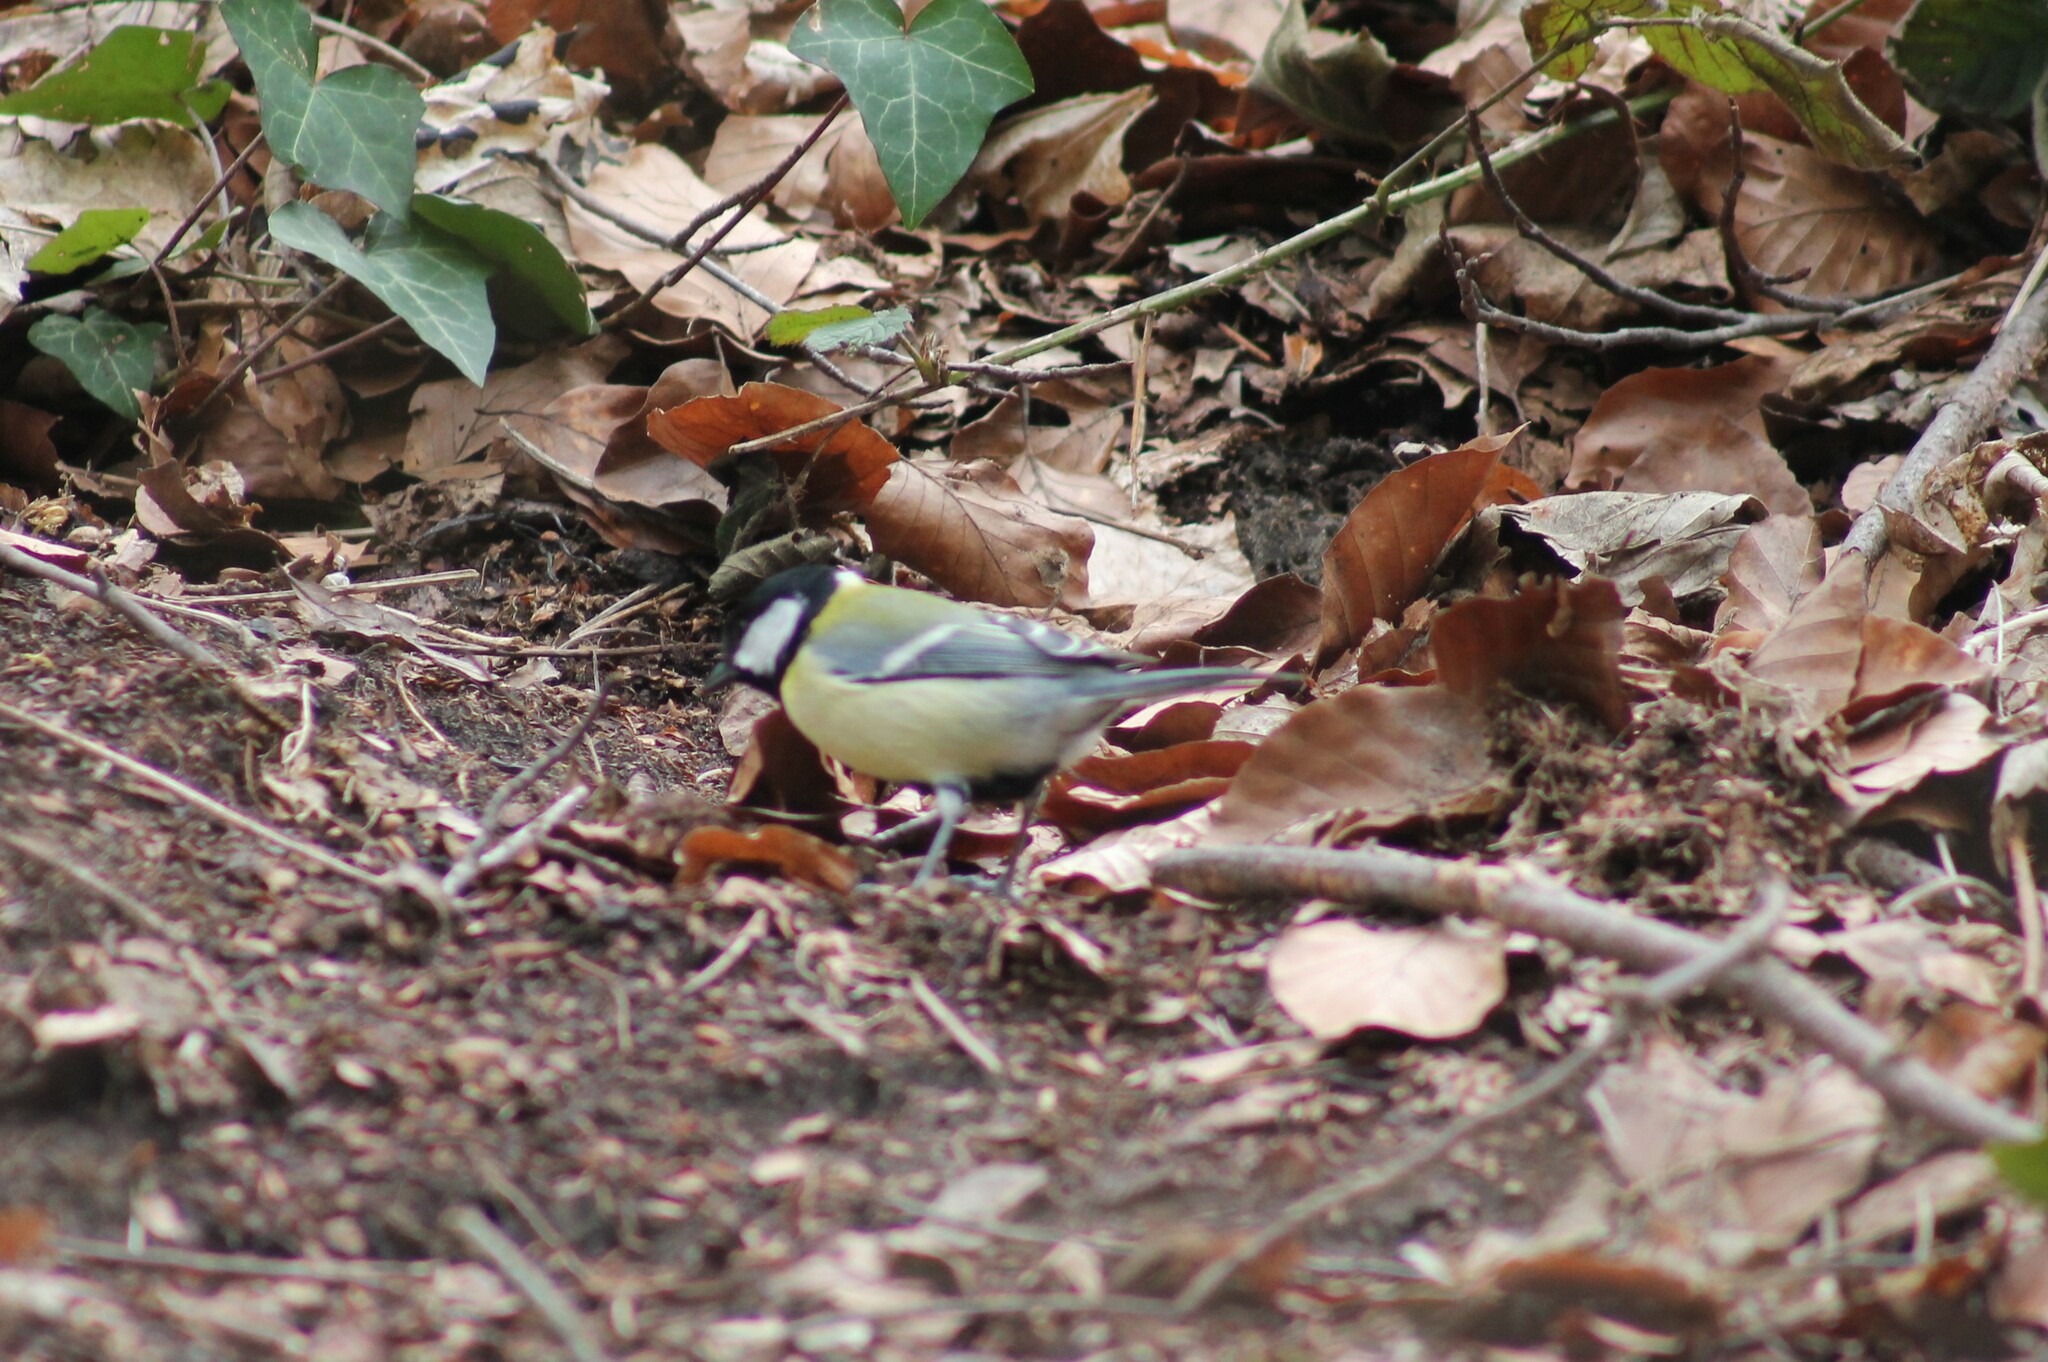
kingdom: Animalia
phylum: Chordata
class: Aves
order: Passeriformes
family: Paridae
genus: Parus
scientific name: Parus major
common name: Great tit
